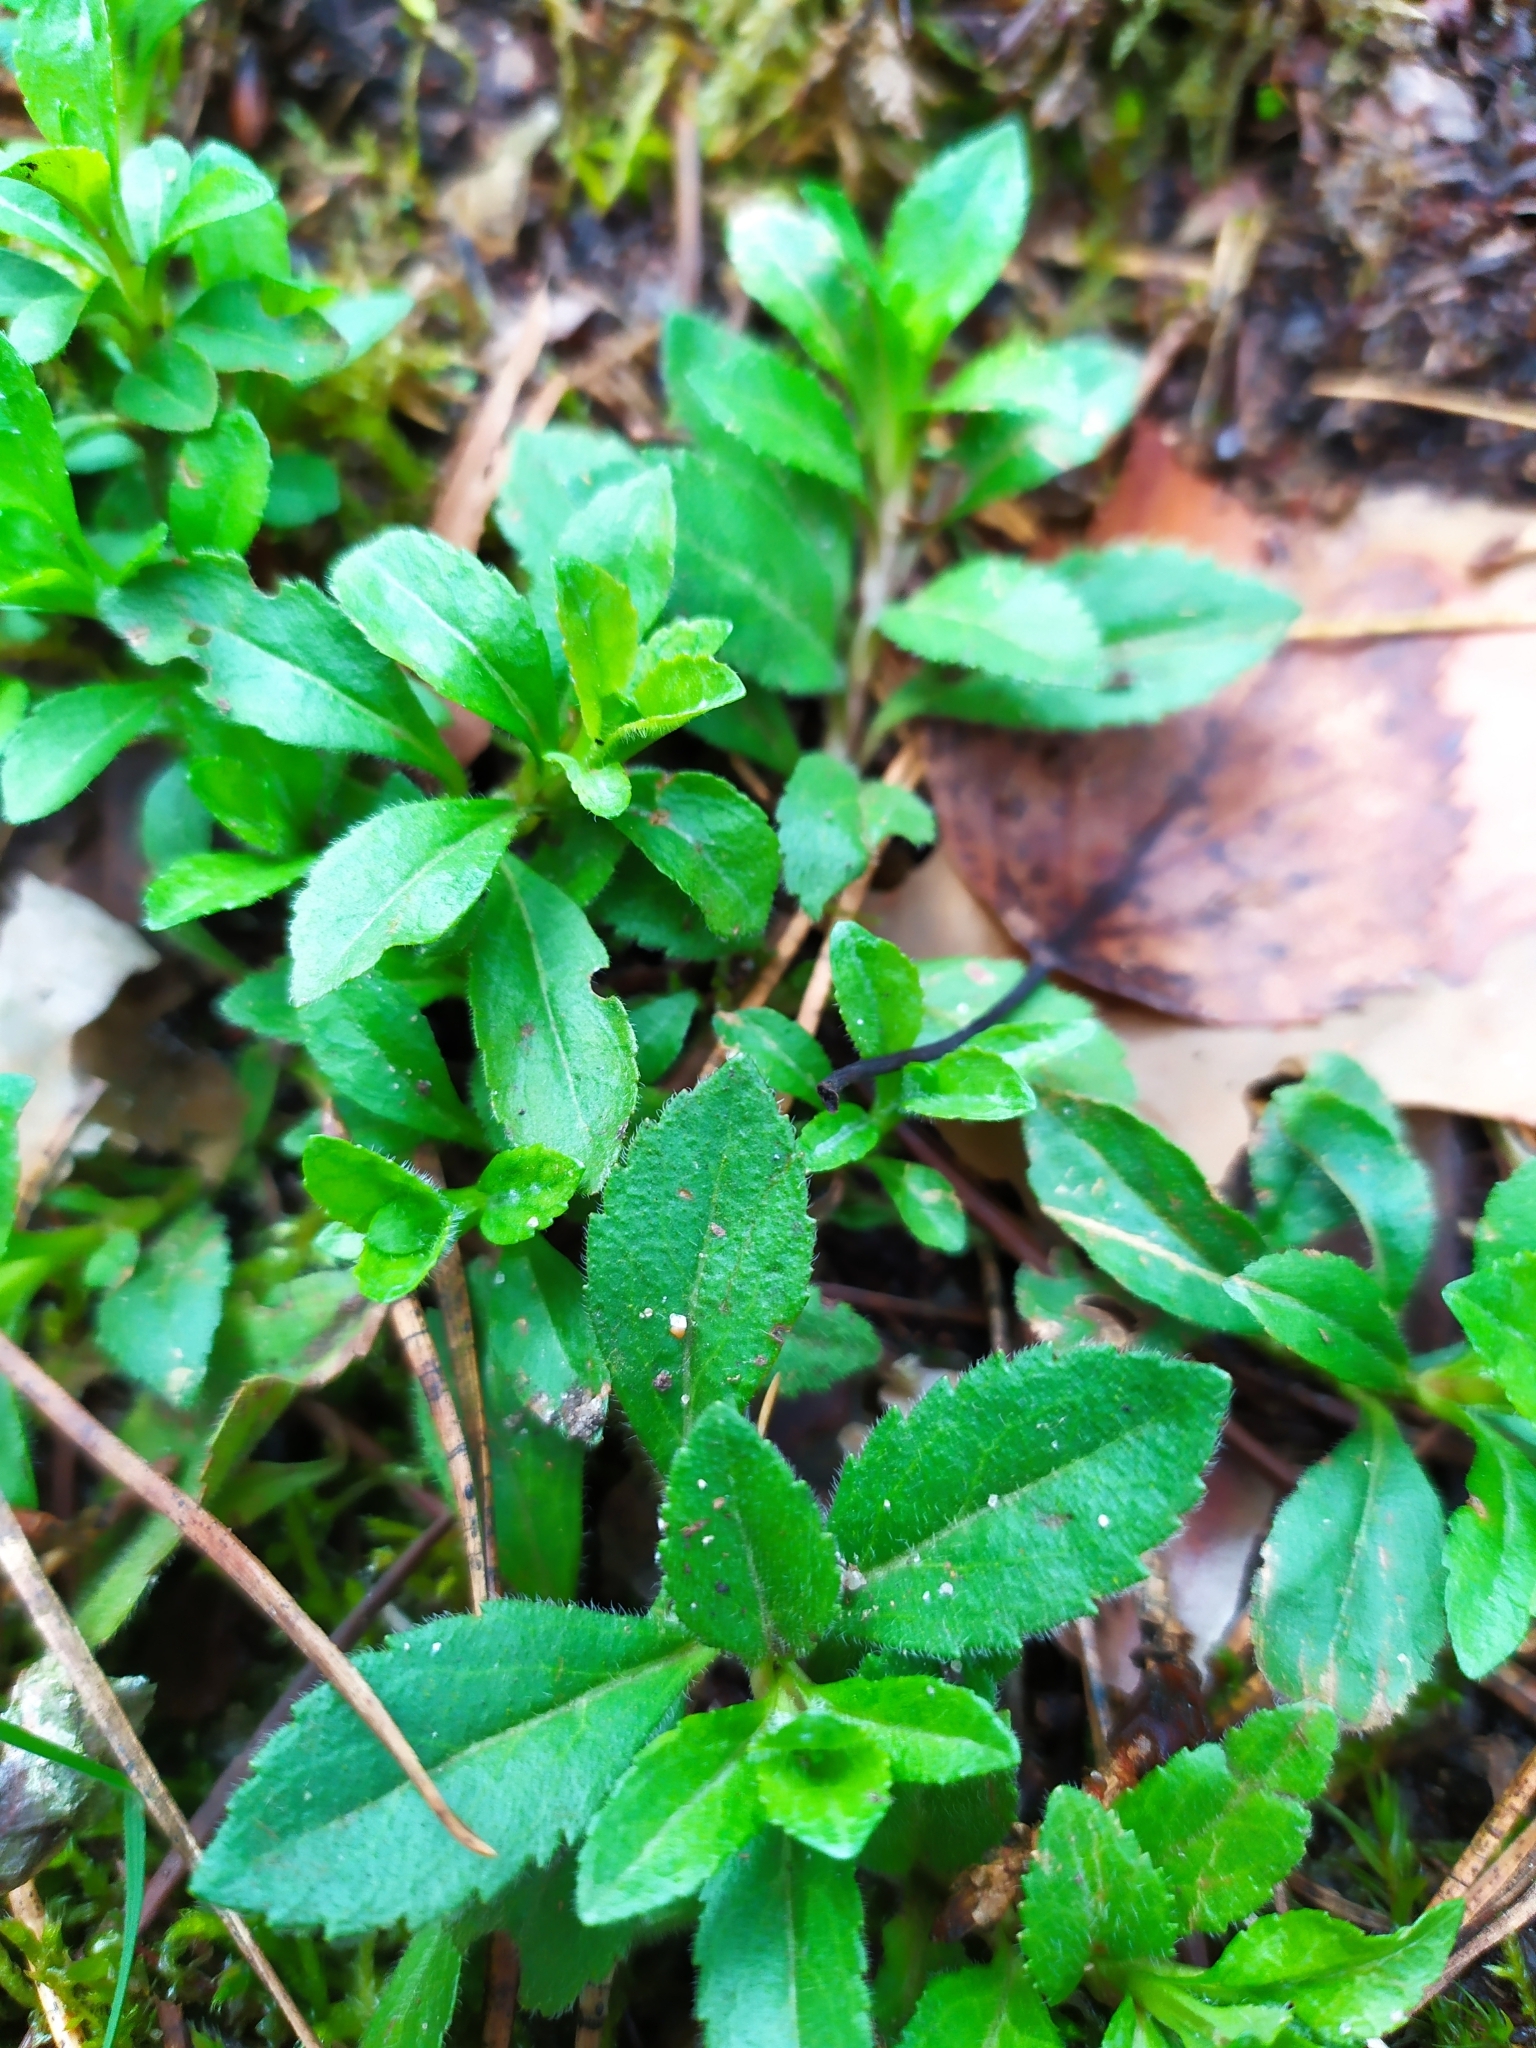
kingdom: Plantae
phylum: Tracheophyta
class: Magnoliopsida
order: Lamiales
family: Plantaginaceae
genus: Veronica
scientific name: Veronica officinalis
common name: Common speedwell
